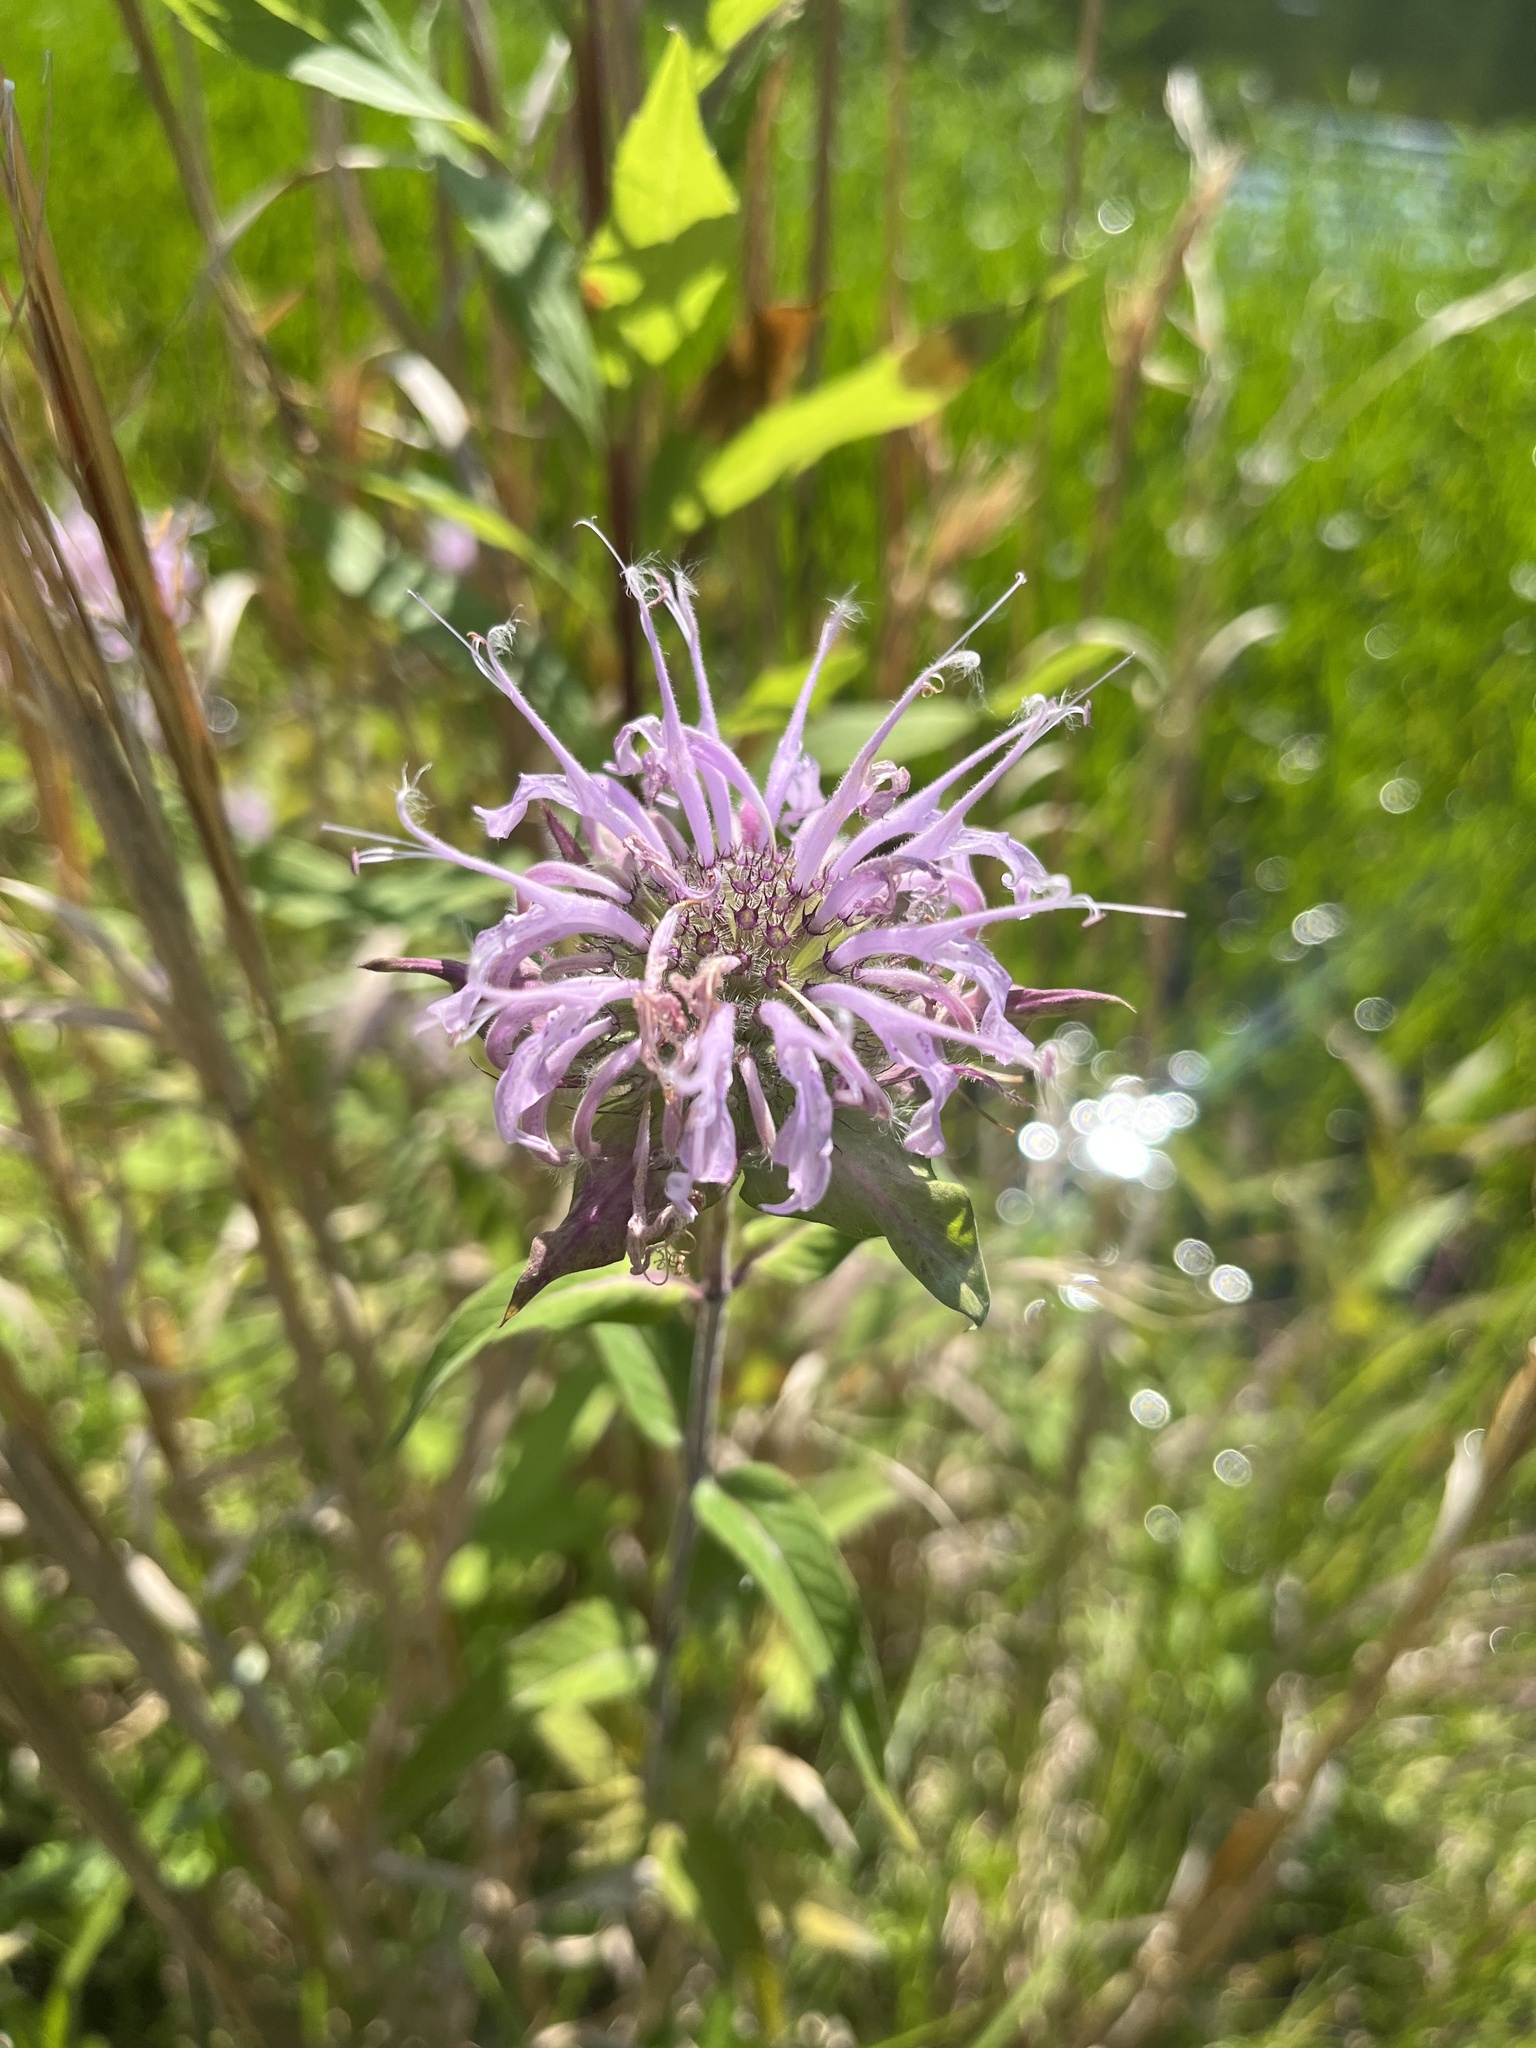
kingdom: Plantae
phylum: Tracheophyta
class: Magnoliopsida
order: Lamiales
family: Lamiaceae
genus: Monarda
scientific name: Monarda fistulosa
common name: Purple beebalm
